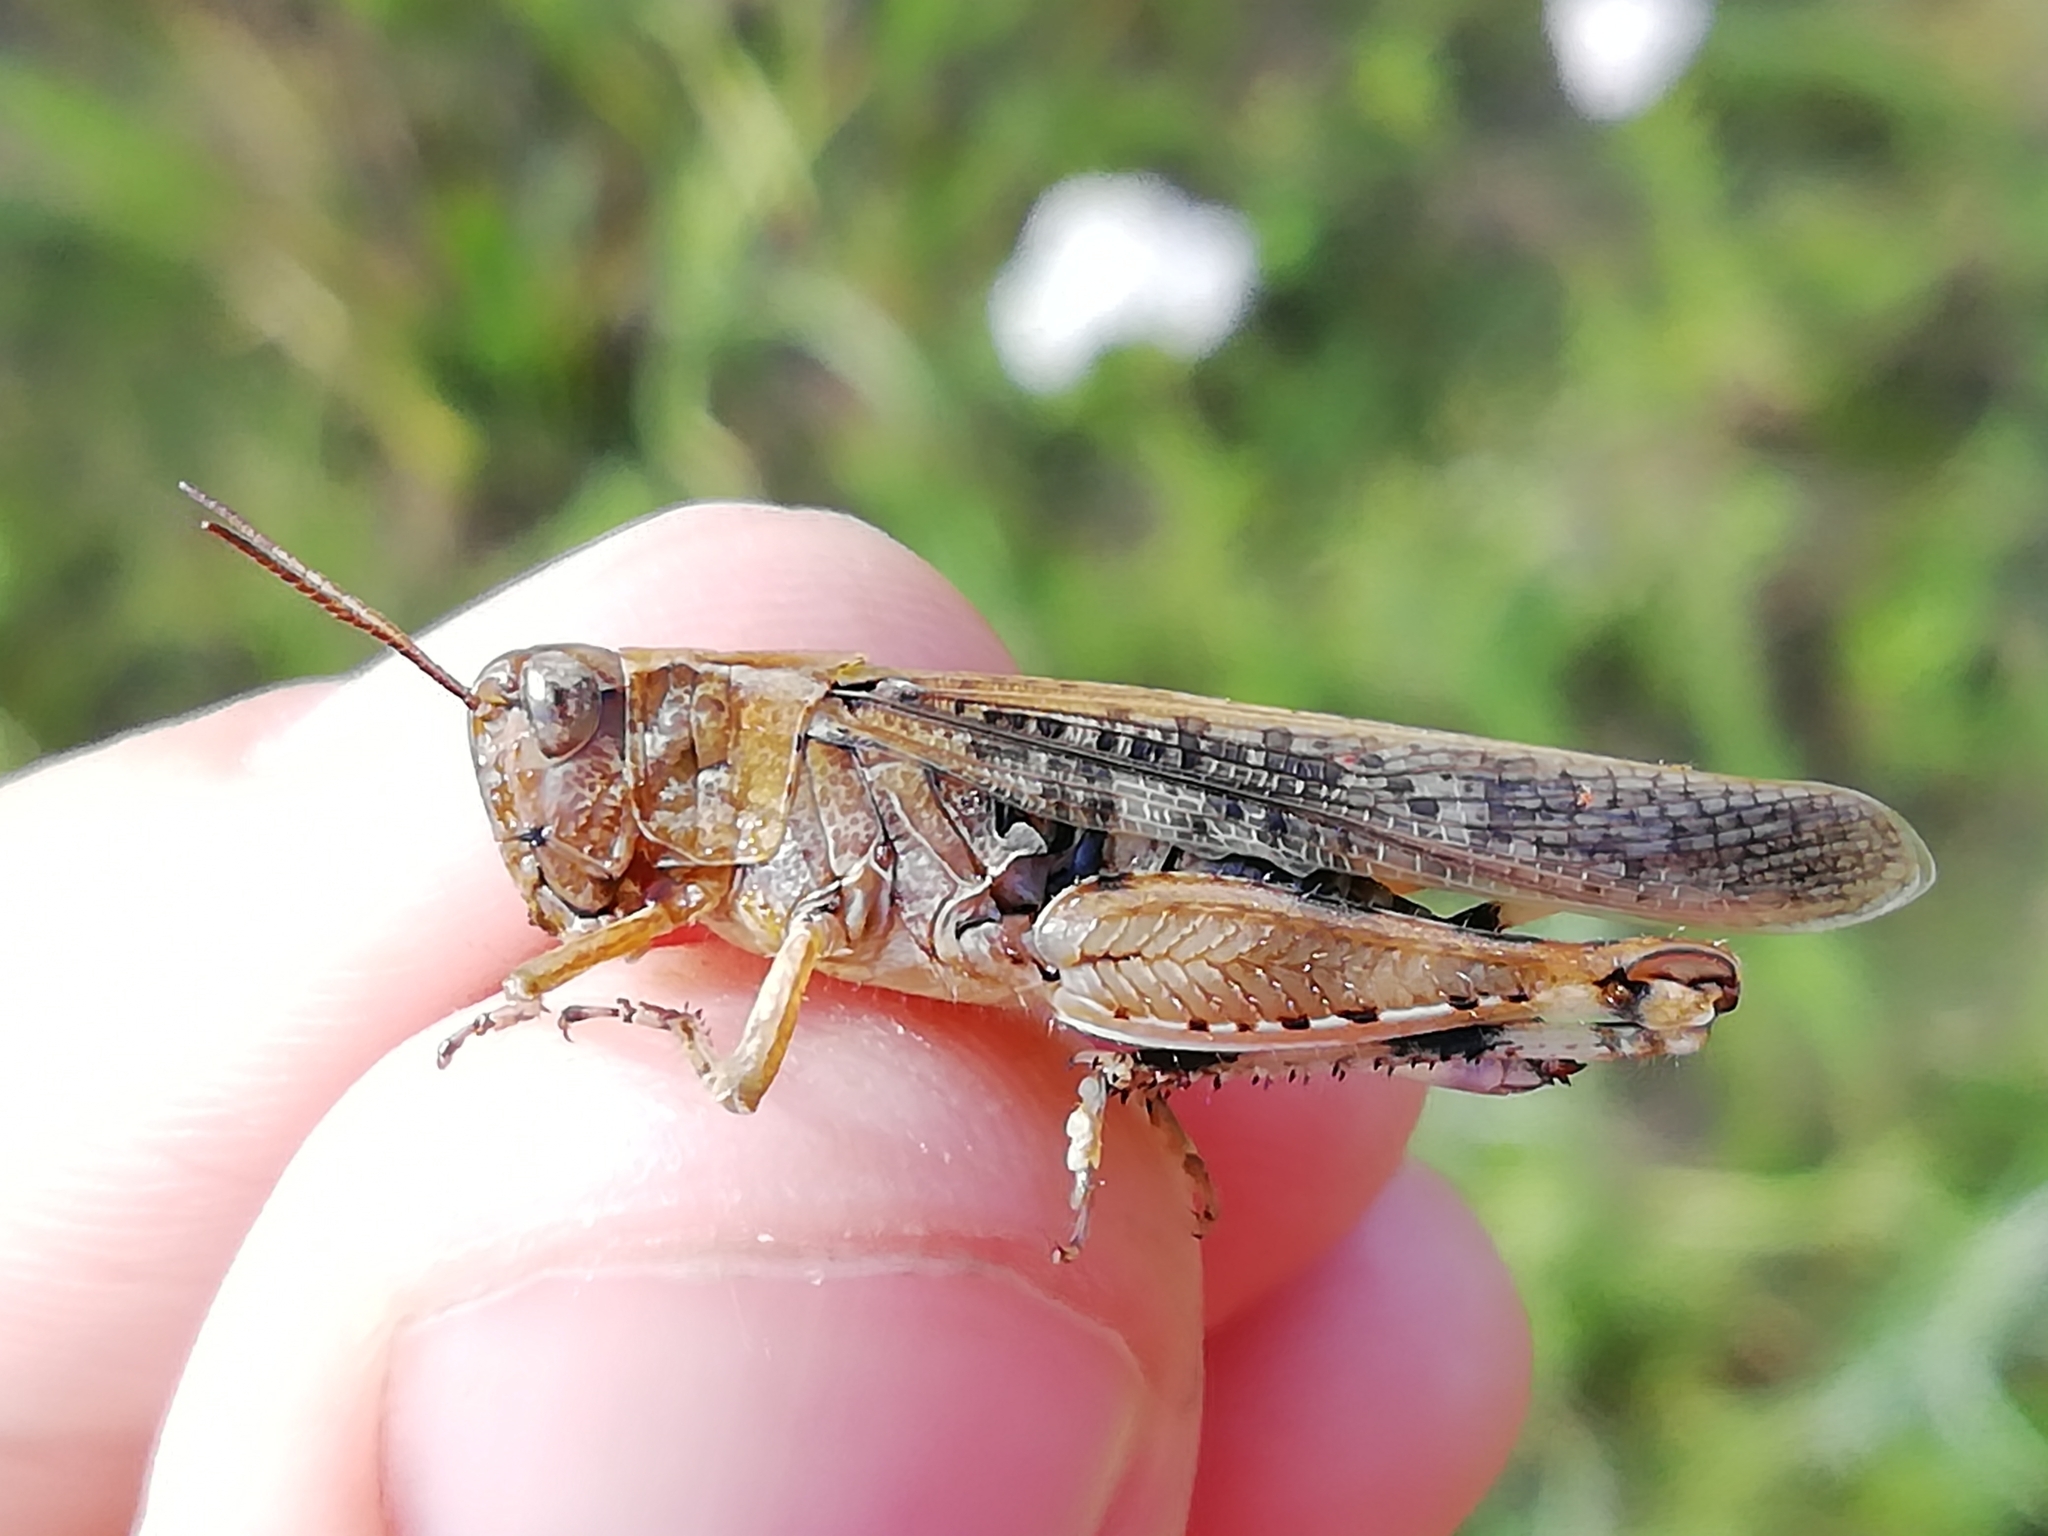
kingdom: Animalia
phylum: Arthropoda
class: Insecta
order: Orthoptera
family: Acrididae
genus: Aiolopus
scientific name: Aiolopus thalassinus
